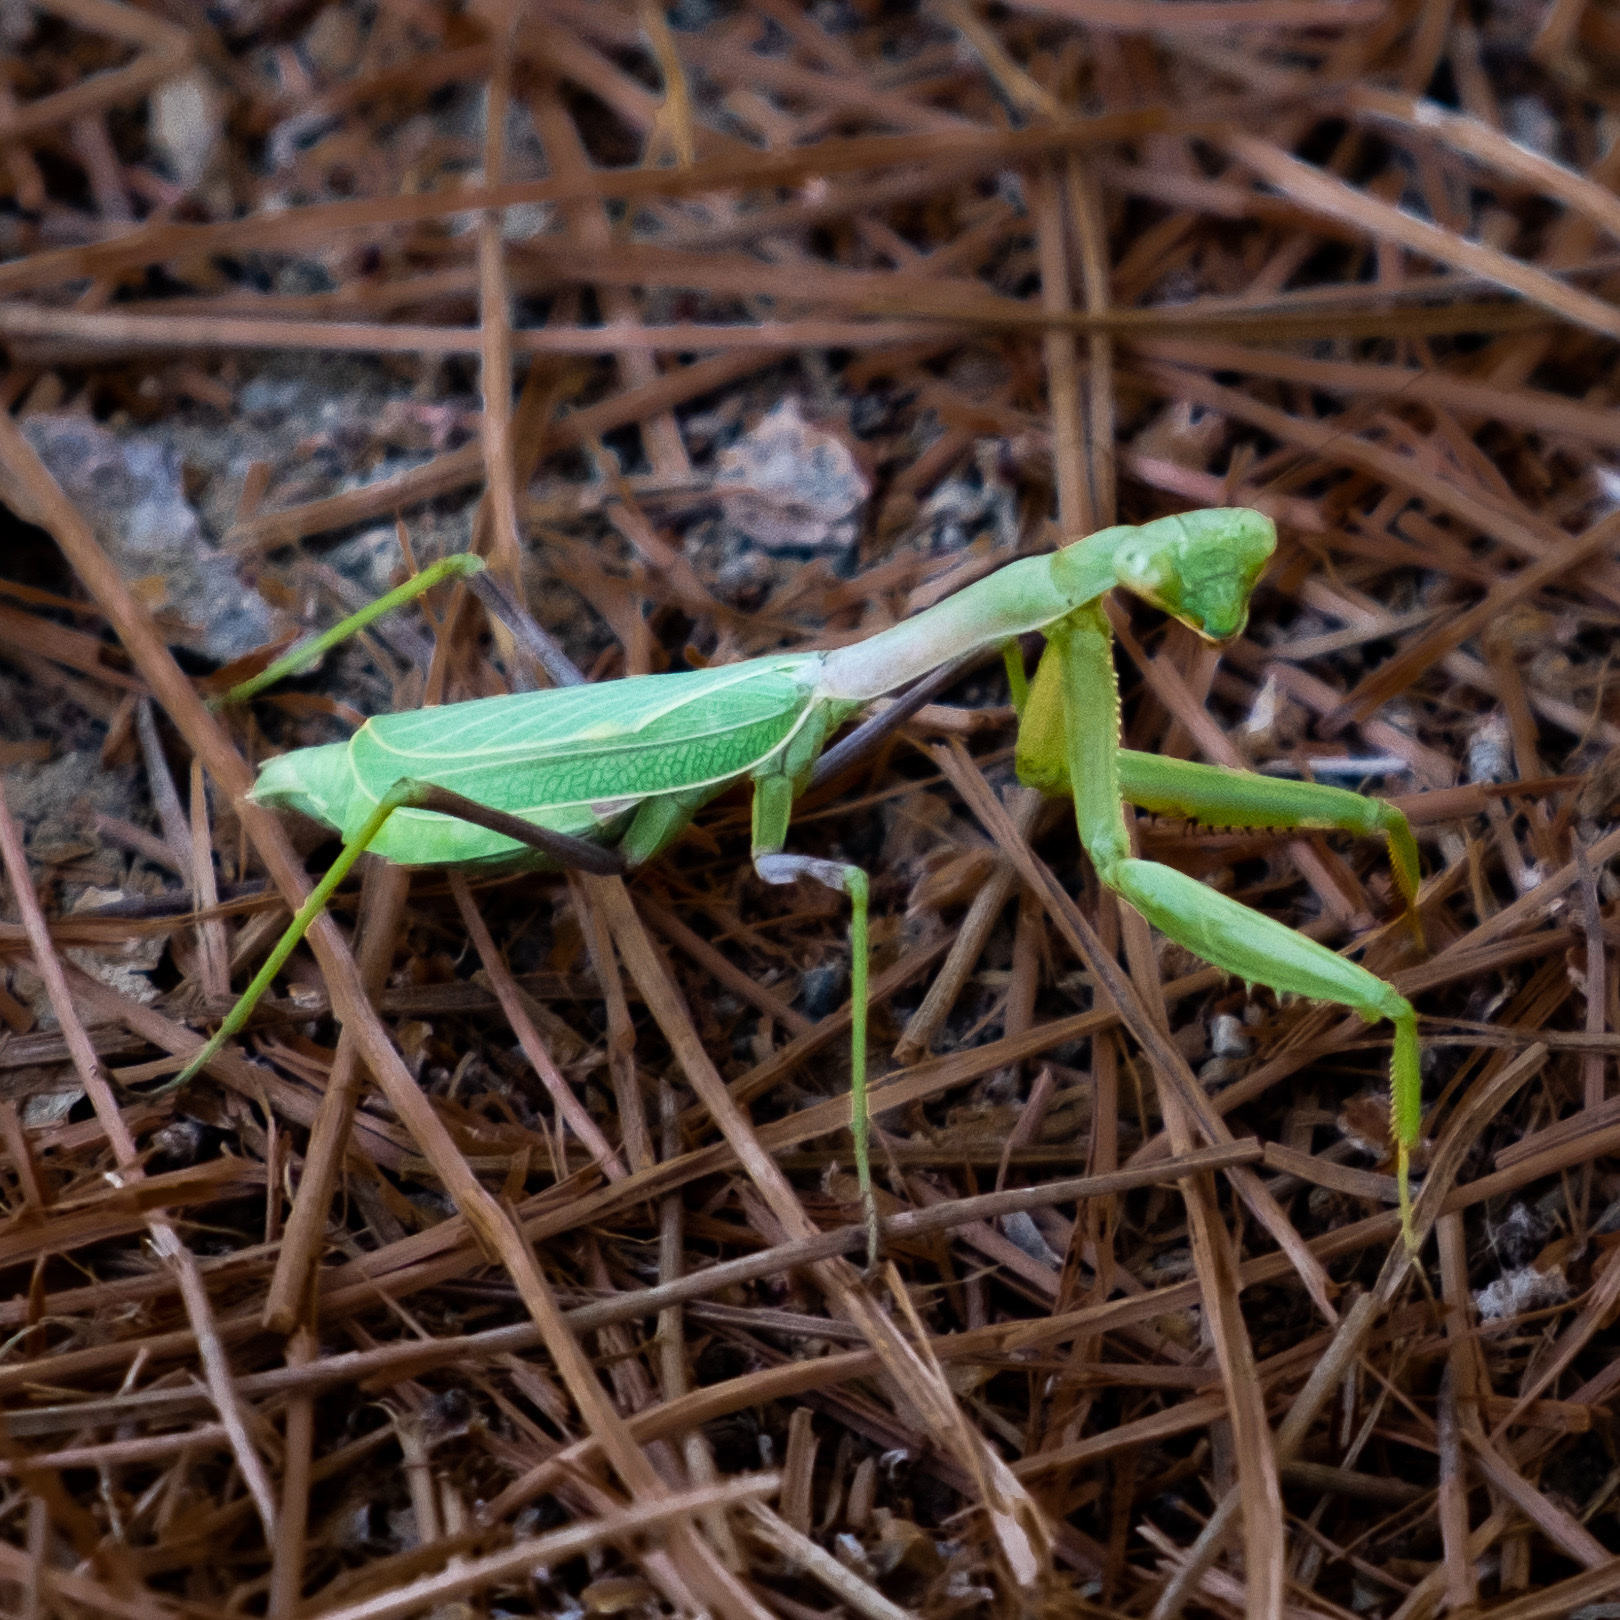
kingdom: Animalia
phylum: Arthropoda
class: Insecta
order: Mantodea
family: Mantidae
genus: Stagmomantis
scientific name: Stagmomantis limbata
